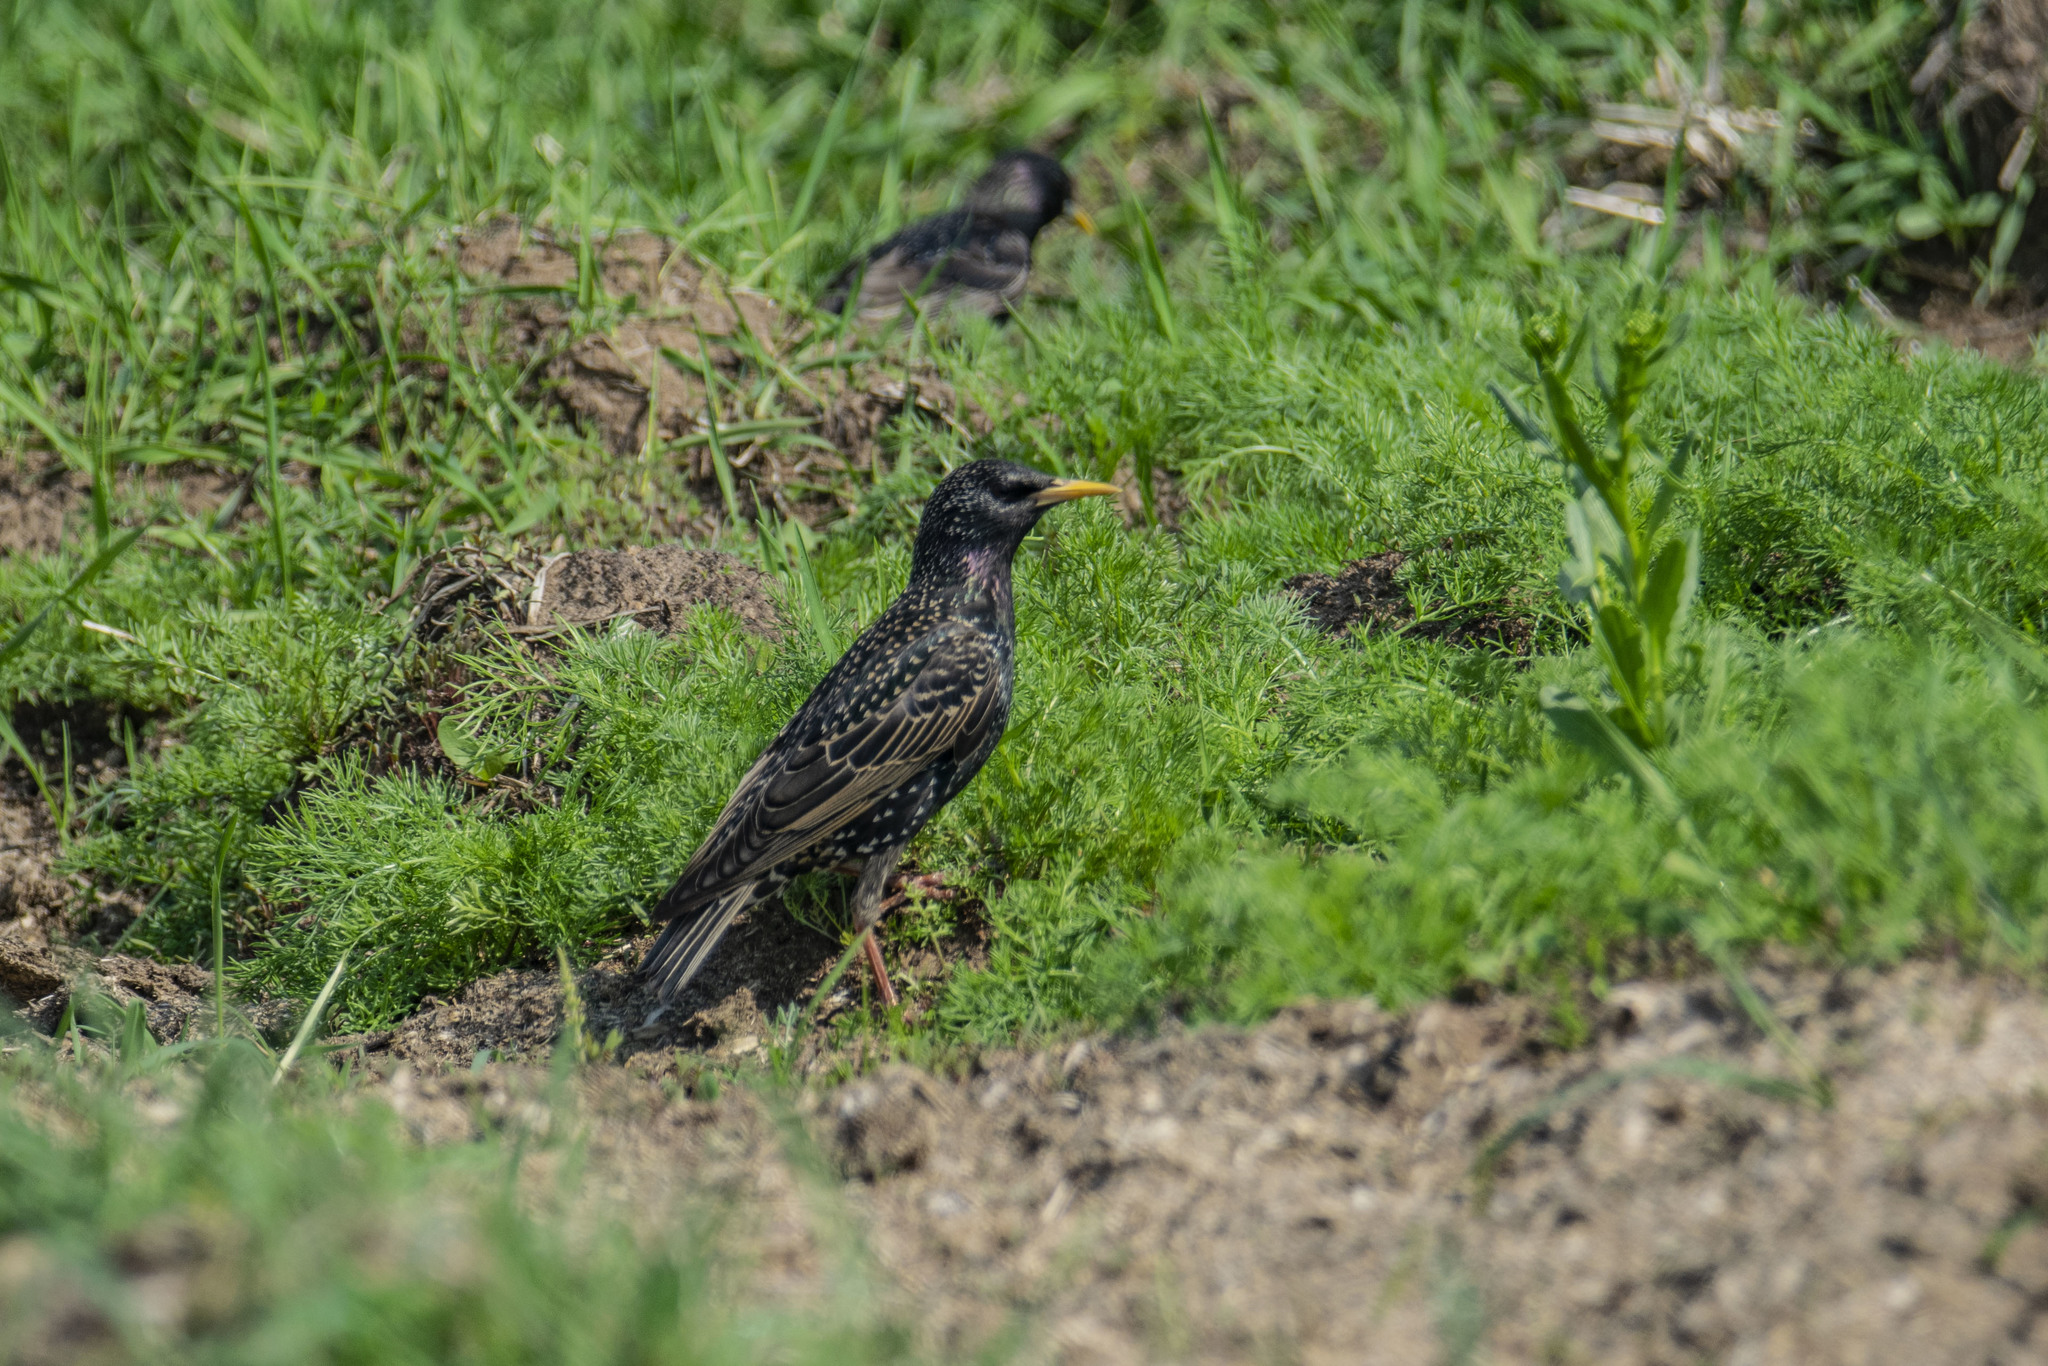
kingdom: Animalia
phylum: Chordata
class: Aves
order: Passeriformes
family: Sturnidae
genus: Sturnus
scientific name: Sturnus vulgaris
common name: Common starling
